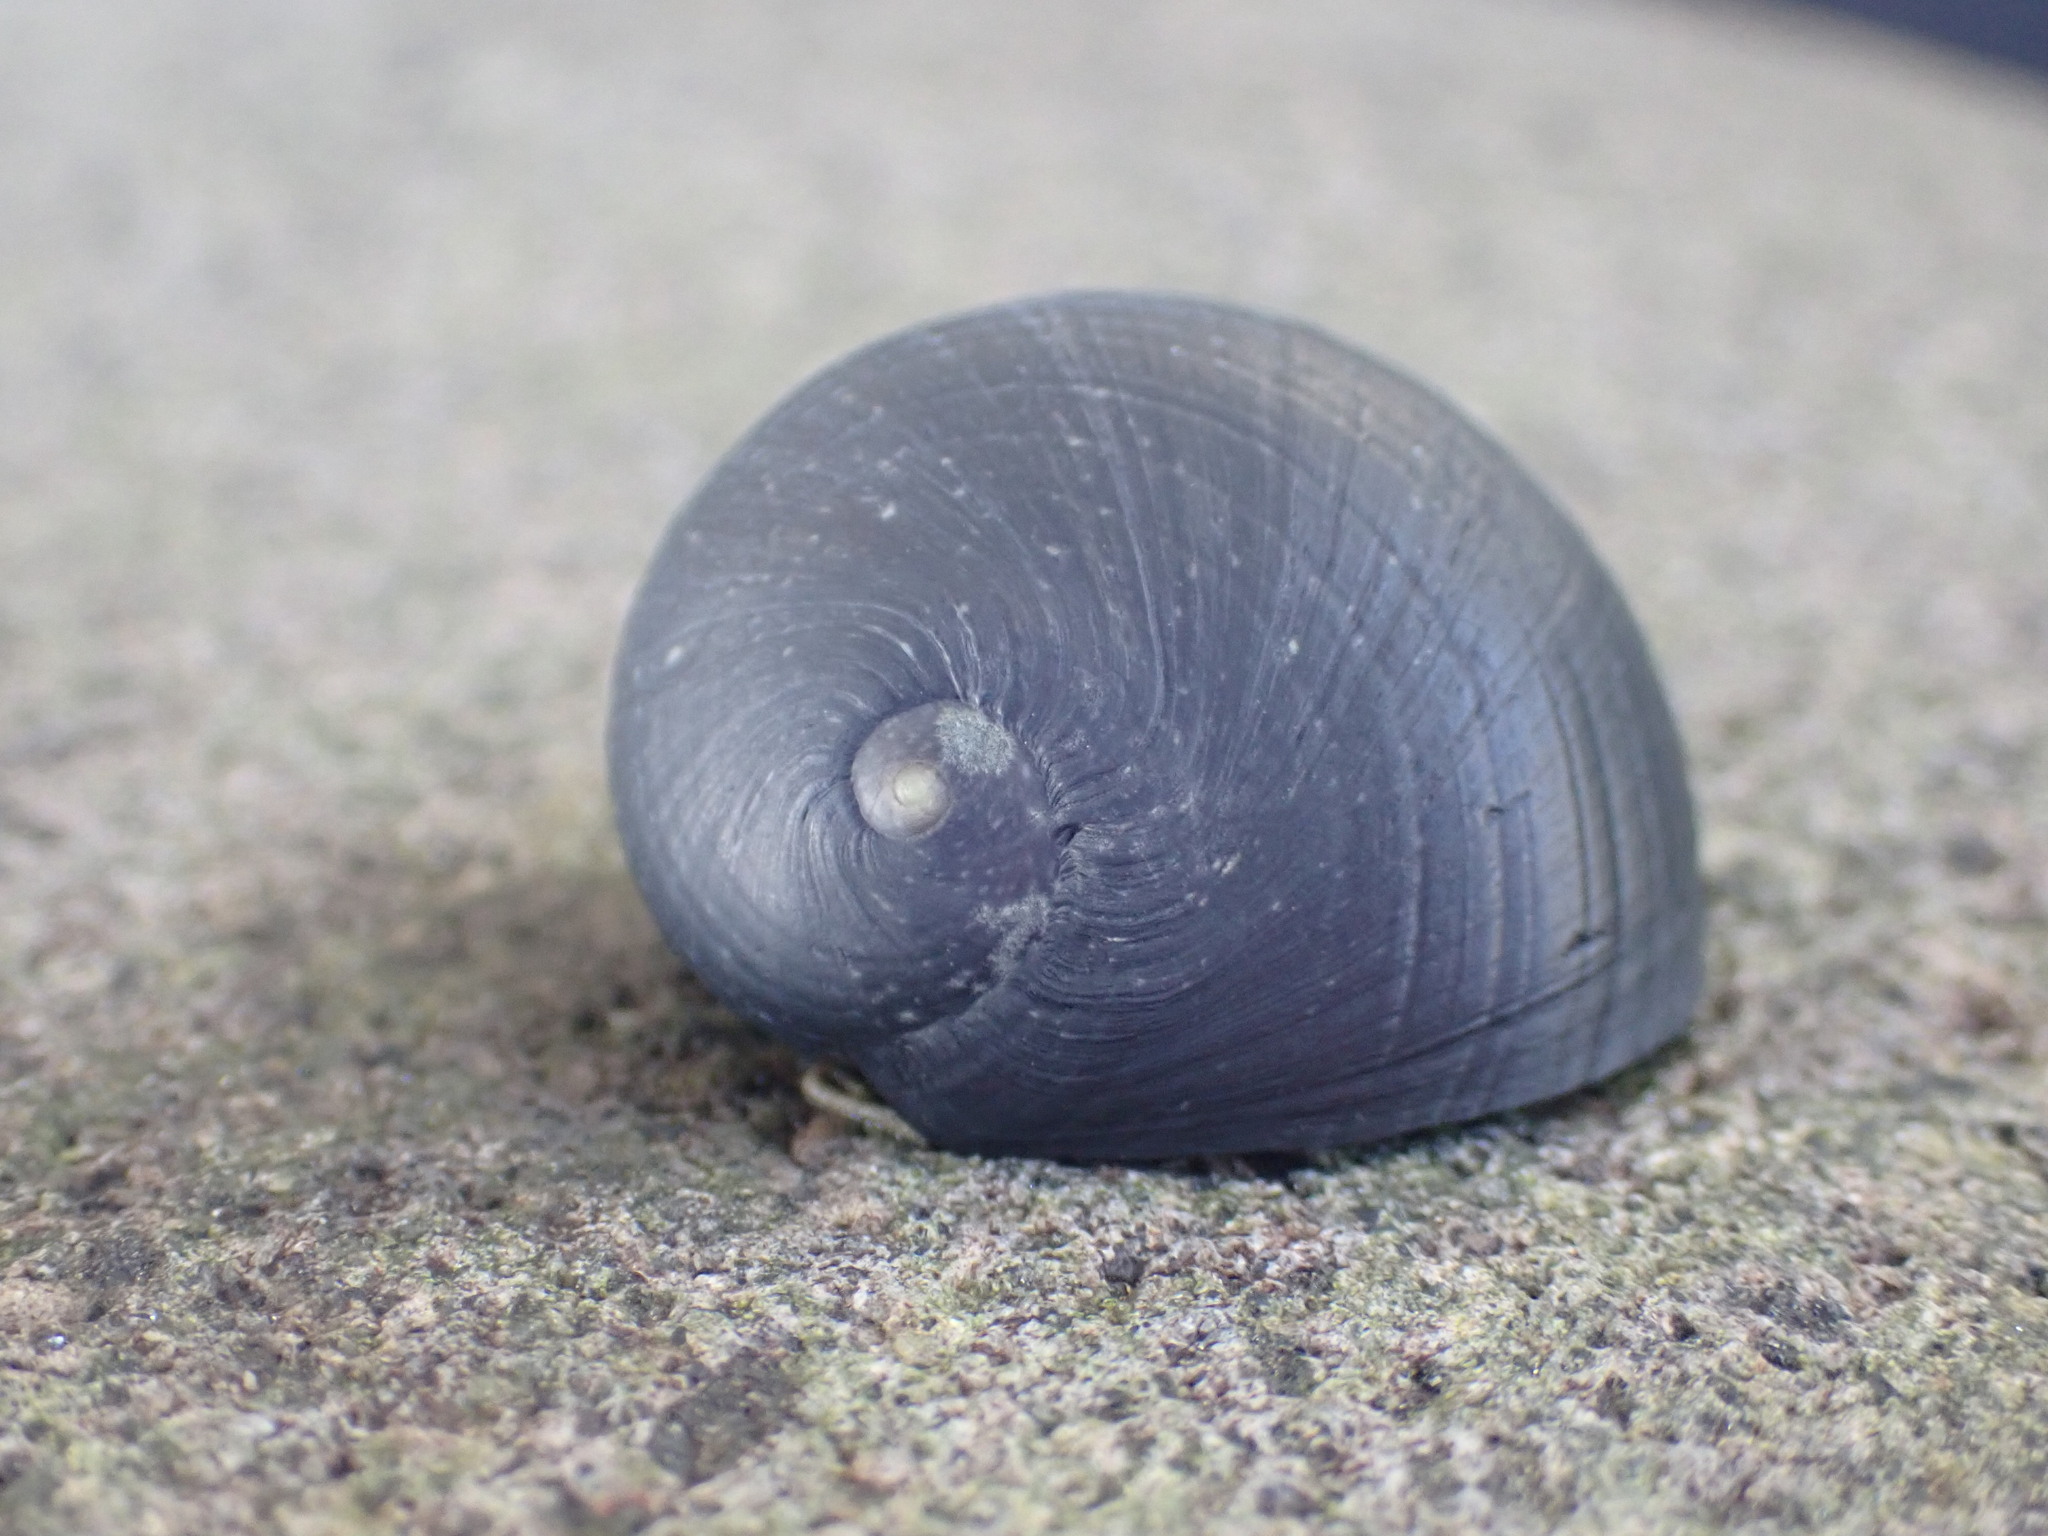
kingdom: Animalia
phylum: Mollusca
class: Gastropoda
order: Cycloneritida
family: Neritidae
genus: Nerita
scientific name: Nerita melanotragus
